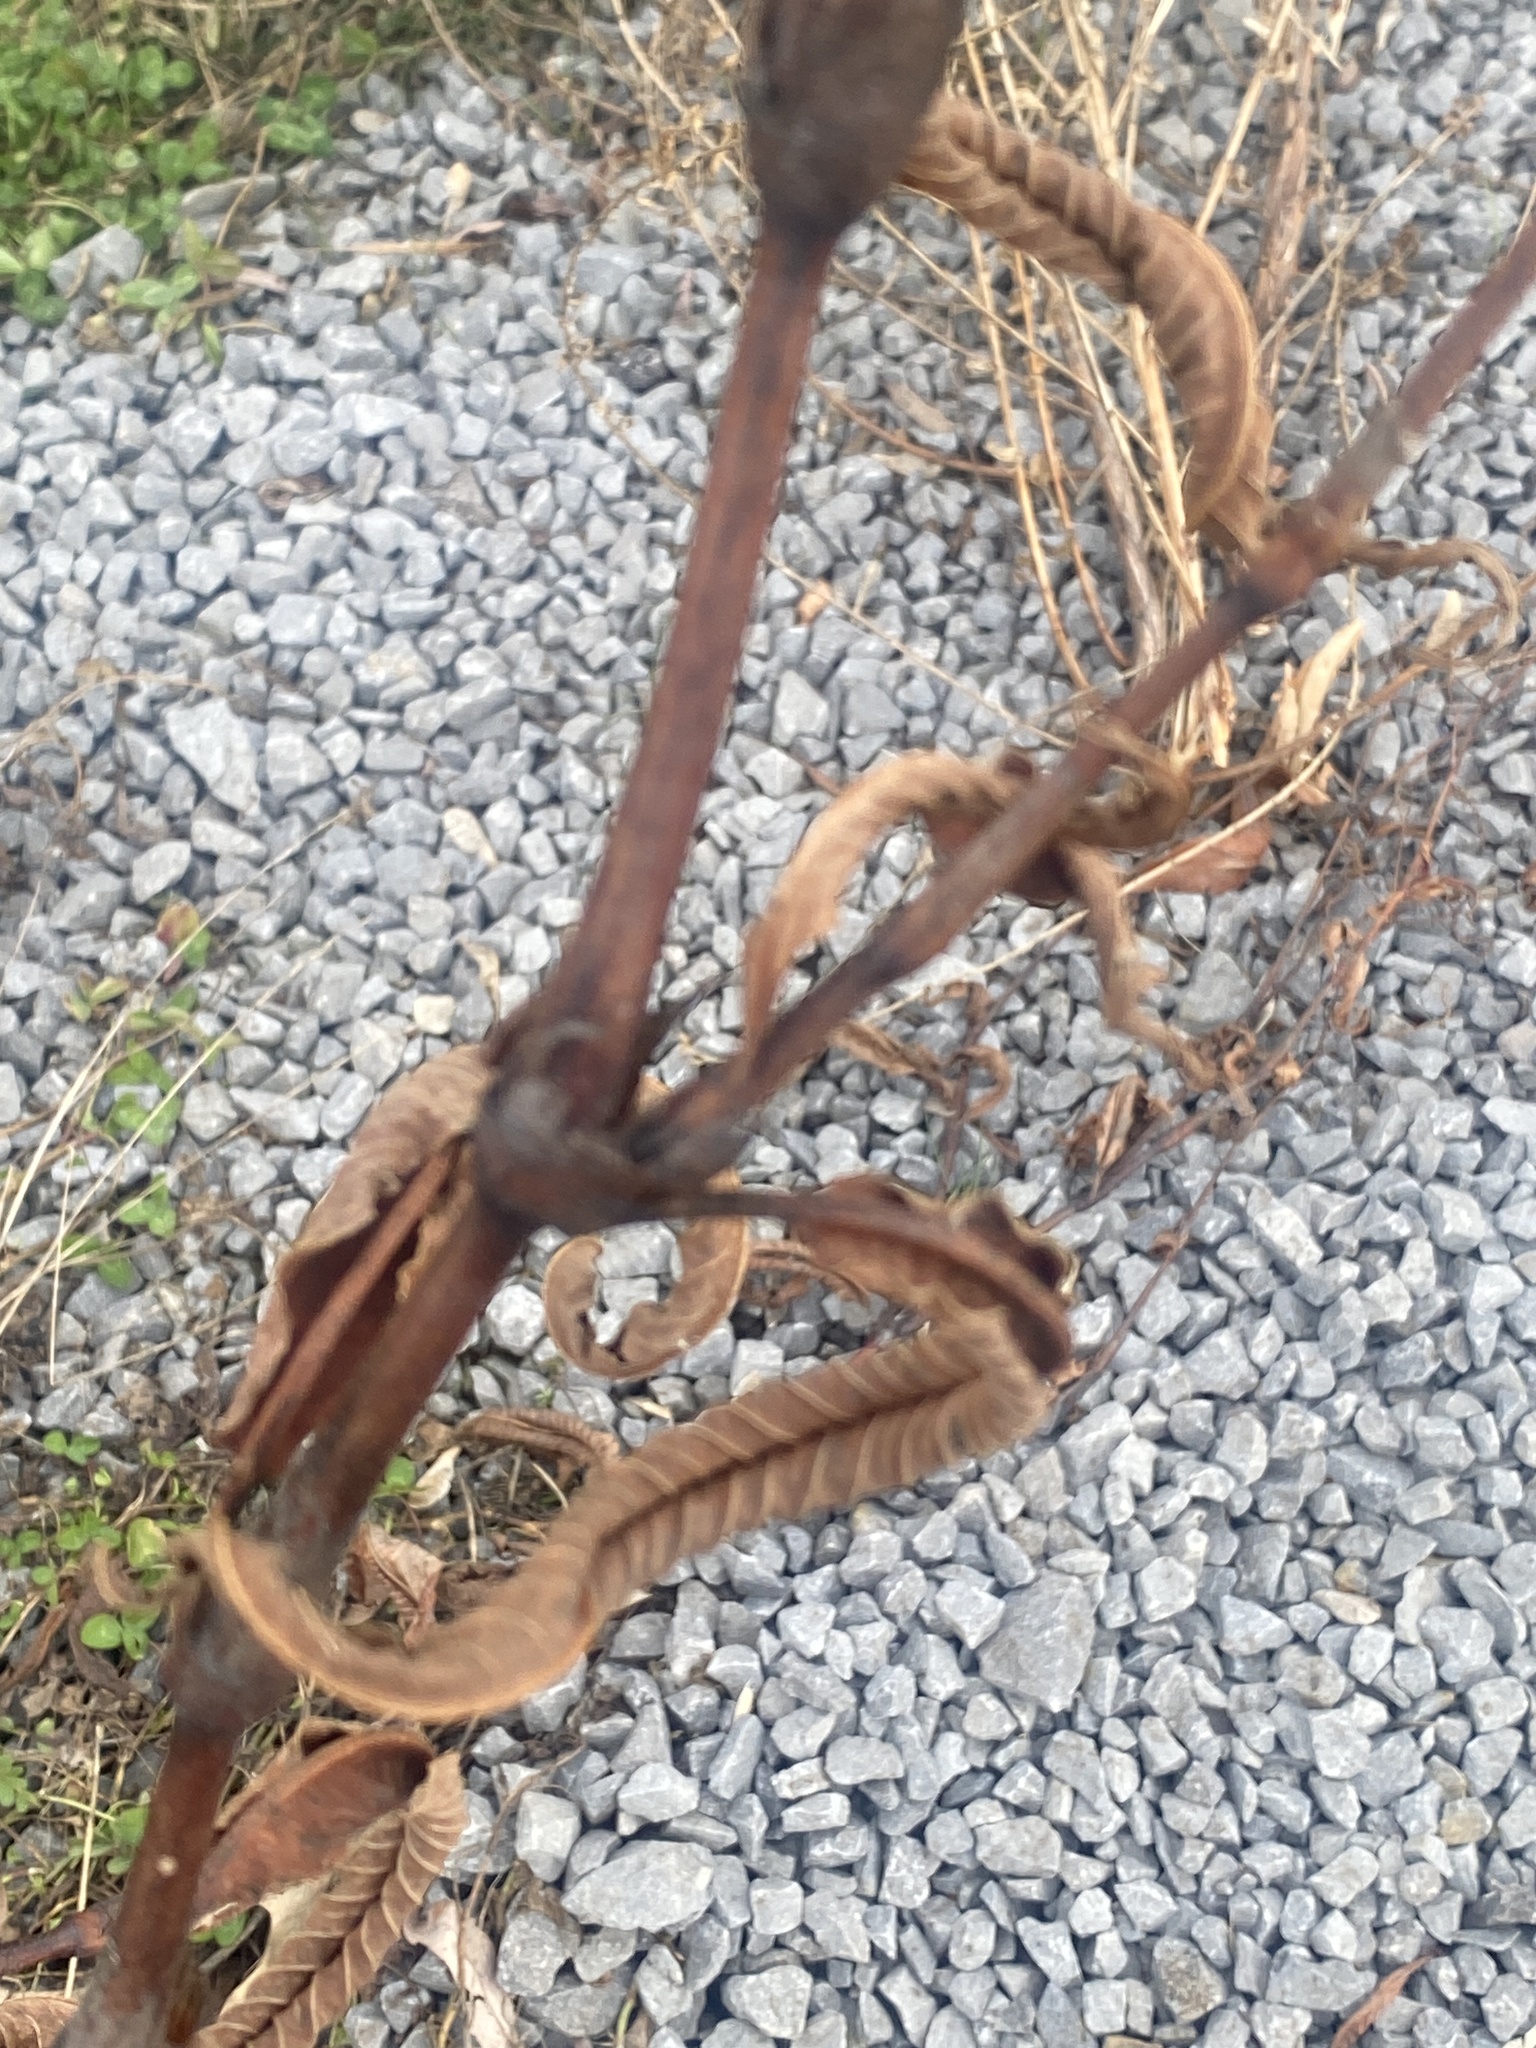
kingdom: Plantae
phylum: Tracheophyta
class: Magnoliopsida
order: Caryophyllales
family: Polygonaceae
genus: Persicaria
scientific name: Persicaria extremiorientalis
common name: Far-eastern smartweed
